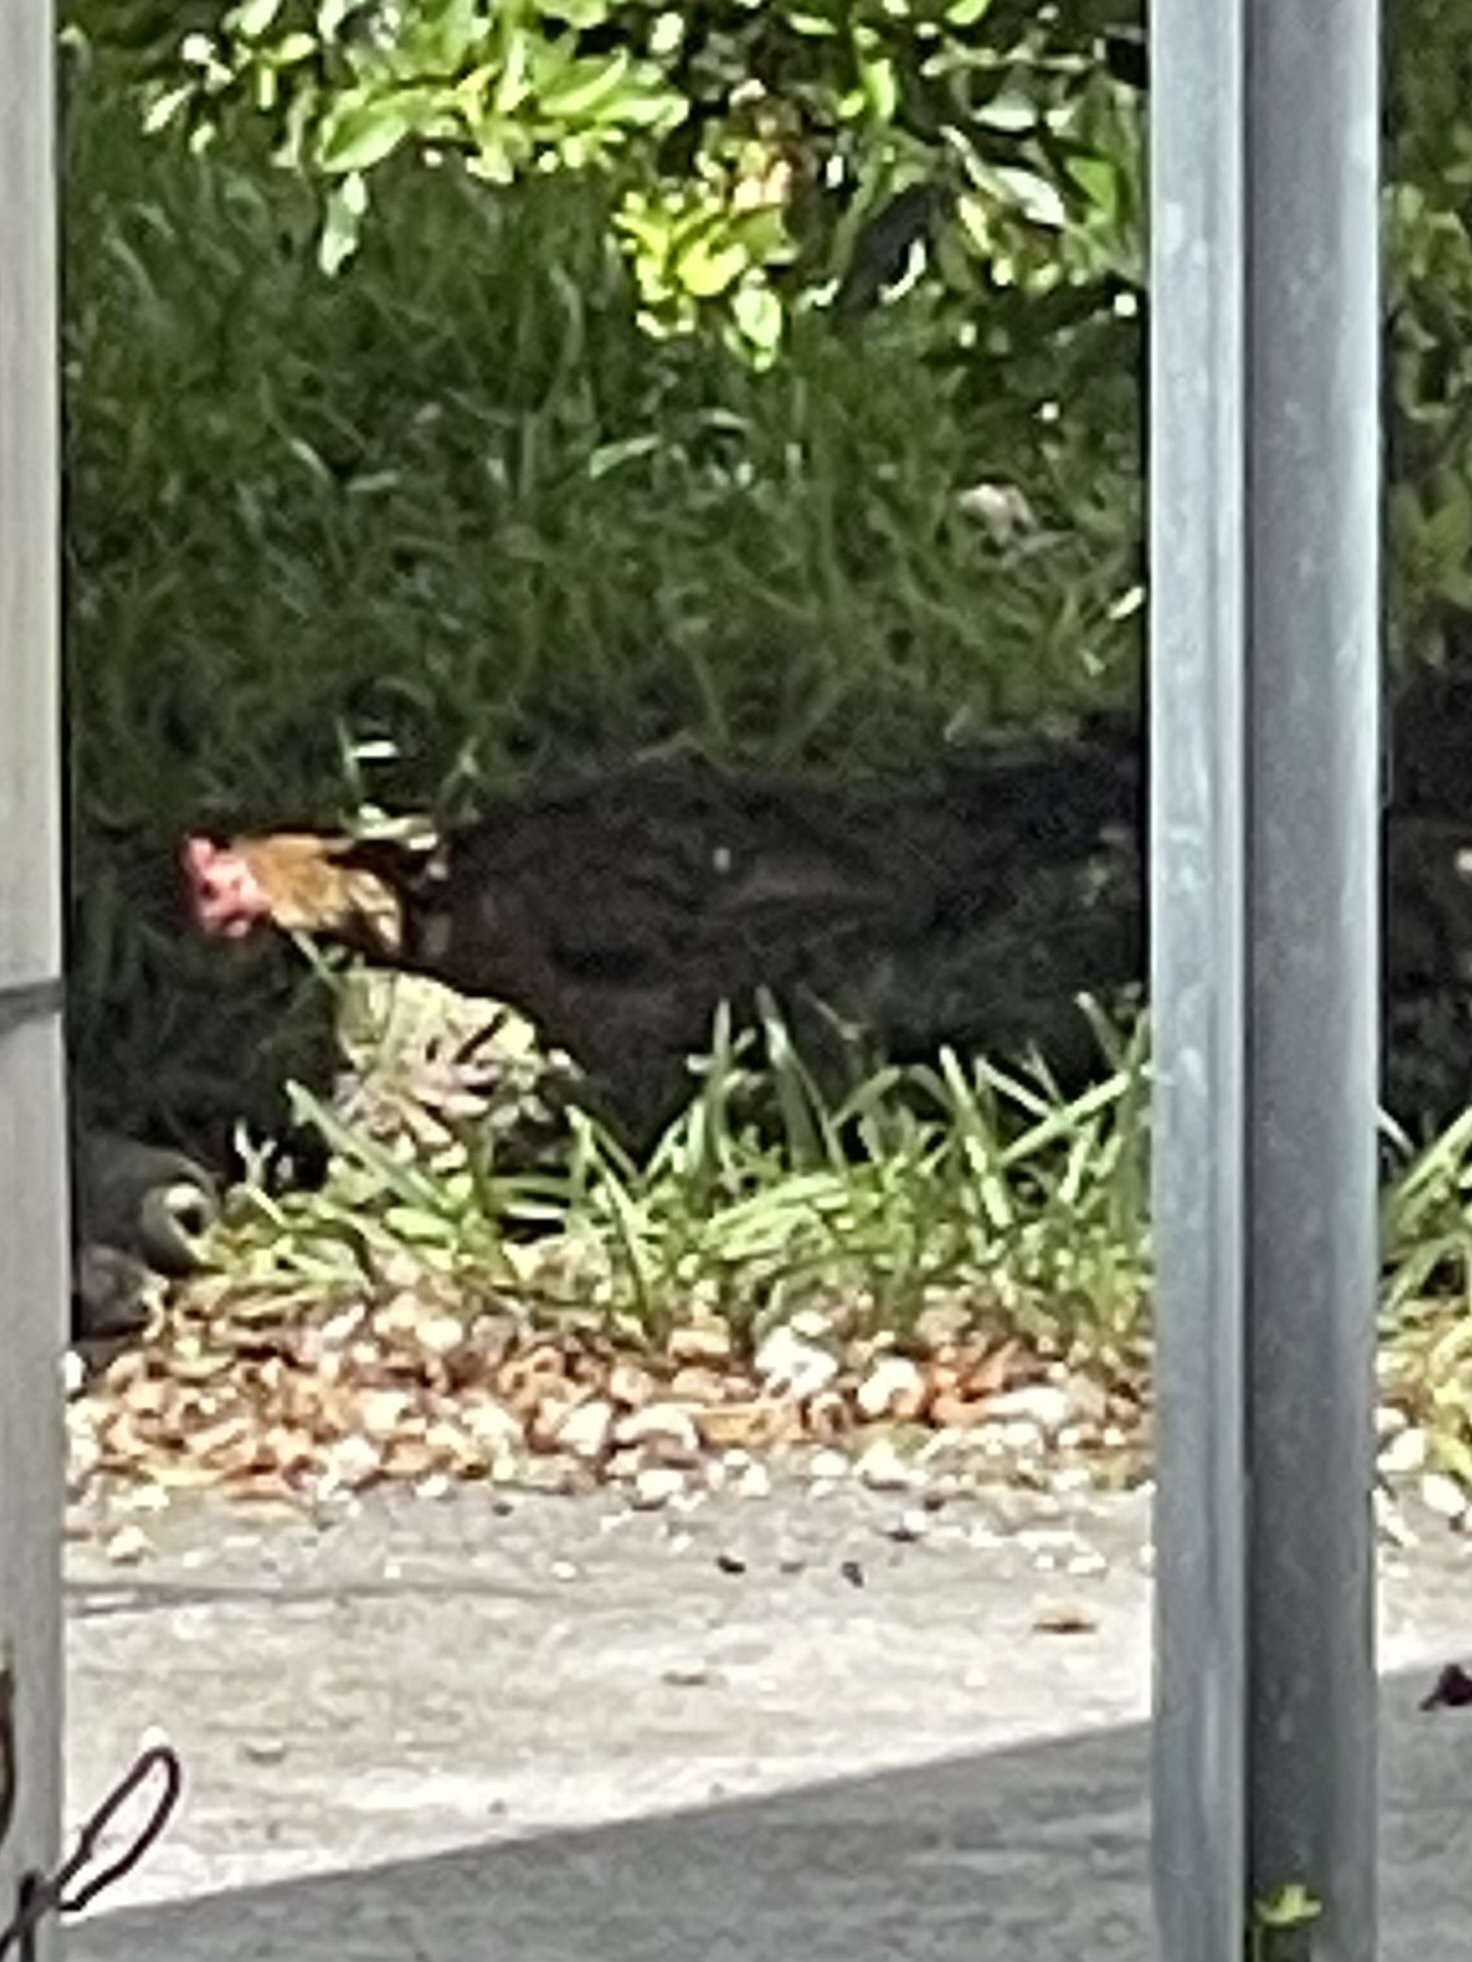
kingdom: Animalia
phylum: Chordata
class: Aves
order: Galliformes
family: Phasianidae
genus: Gallus
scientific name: Gallus gallus
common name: Red junglefowl
